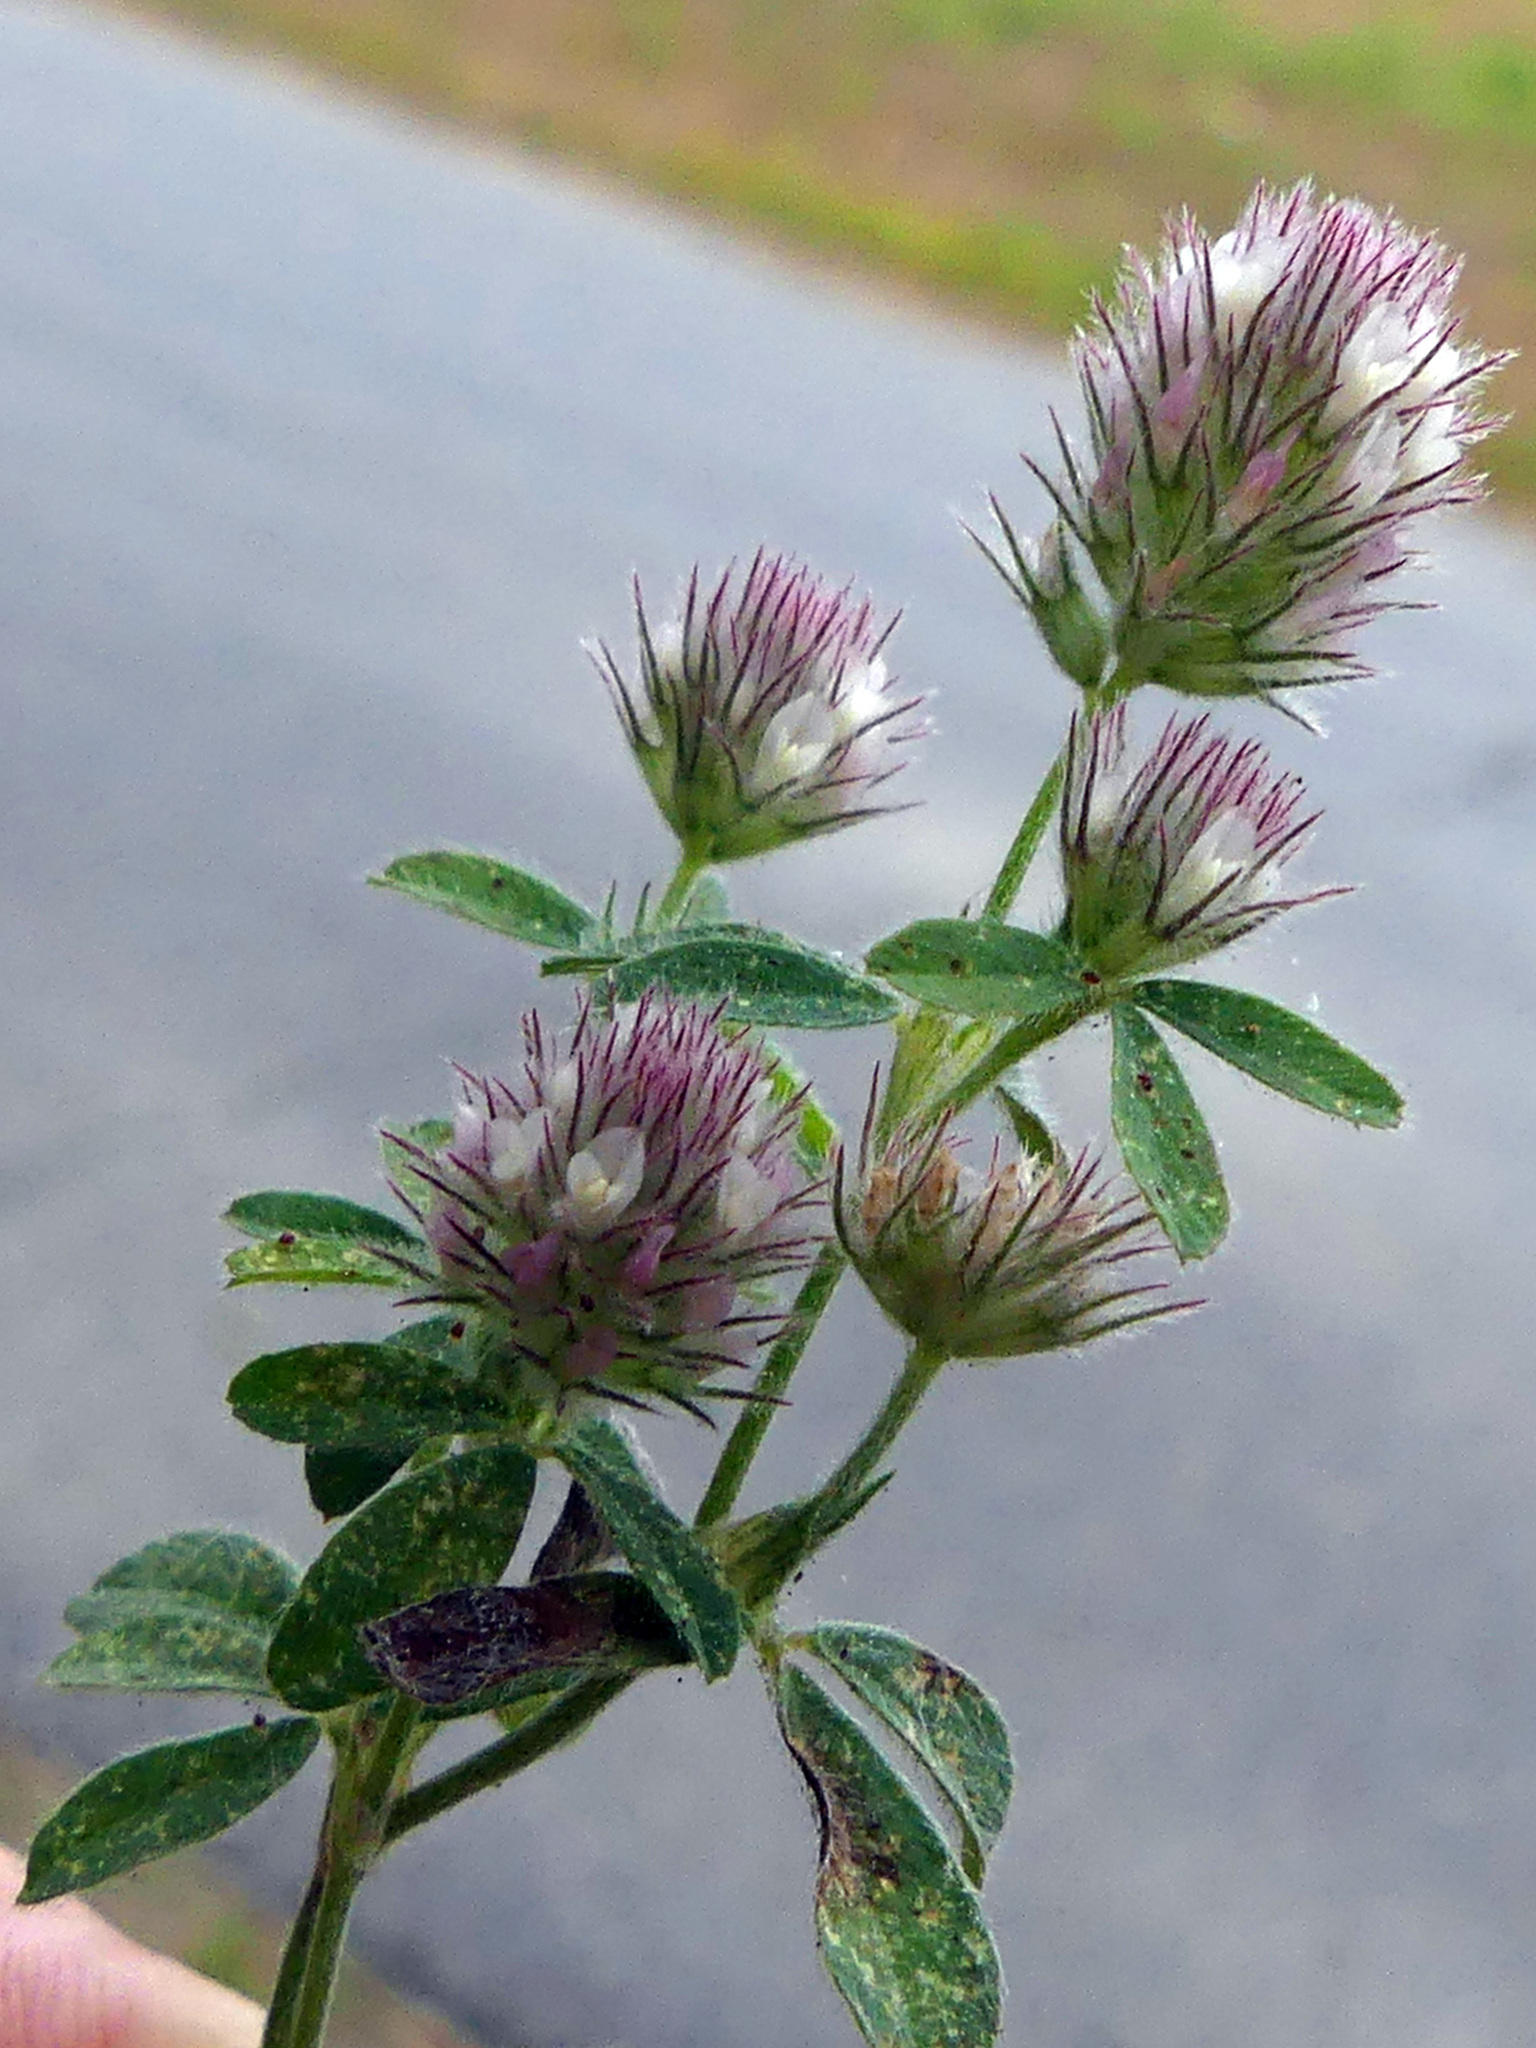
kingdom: Plantae
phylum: Tracheophyta
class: Magnoliopsida
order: Fabales
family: Fabaceae
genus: Trifolium
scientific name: Trifolium arvense
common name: Hare's-foot clover
